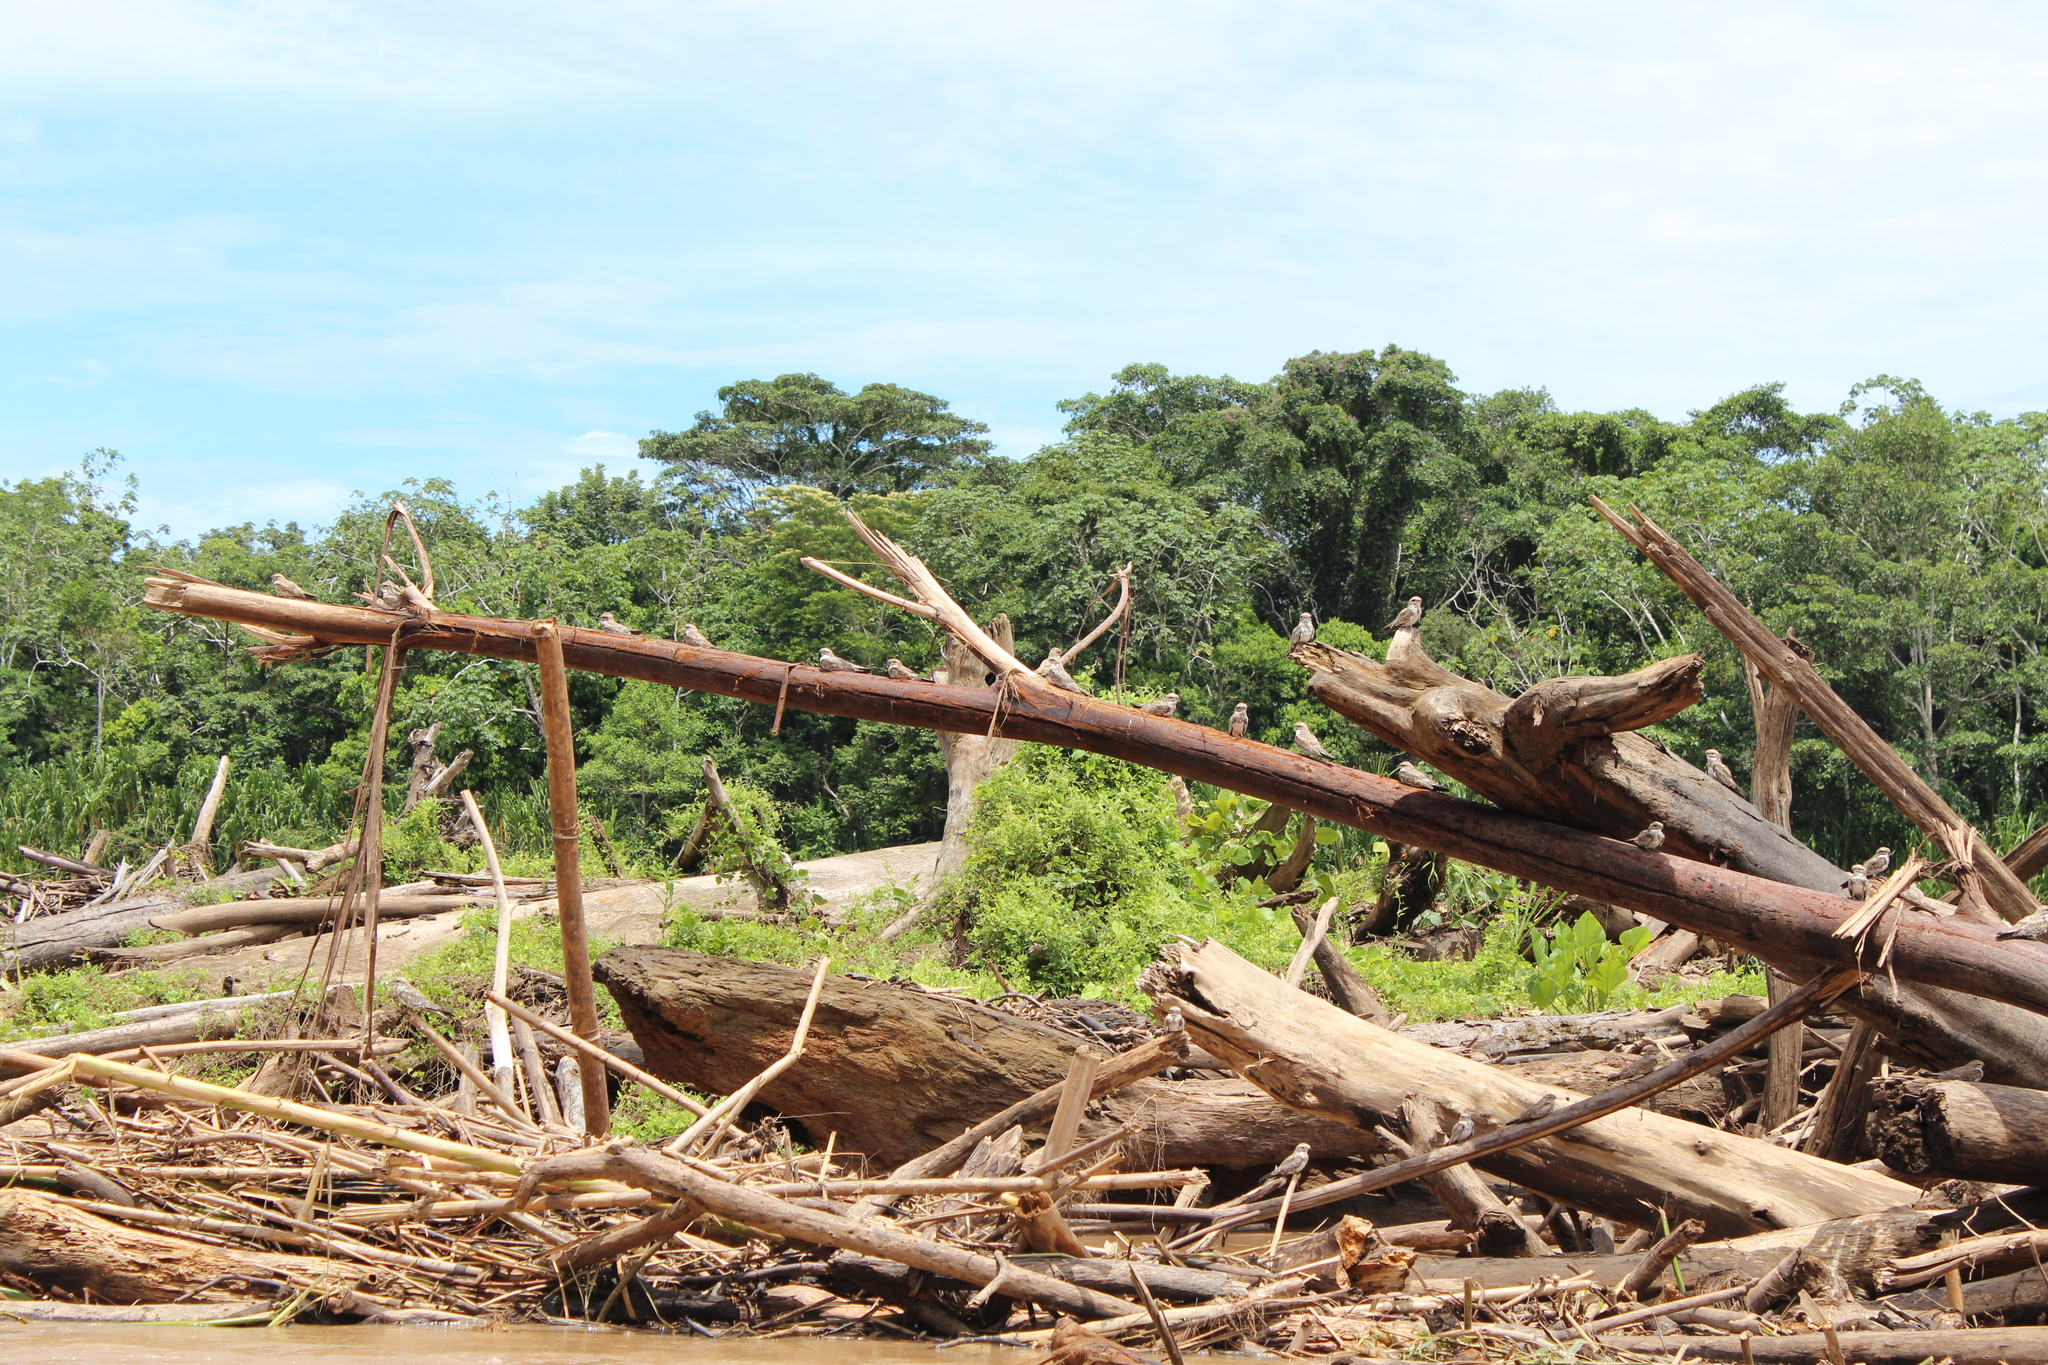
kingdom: Animalia
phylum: Chordata
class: Aves
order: Caprimulgiformes
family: Caprimulgidae
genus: Chordeiles
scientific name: Chordeiles rupestris
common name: Sand-colored nighthawk
